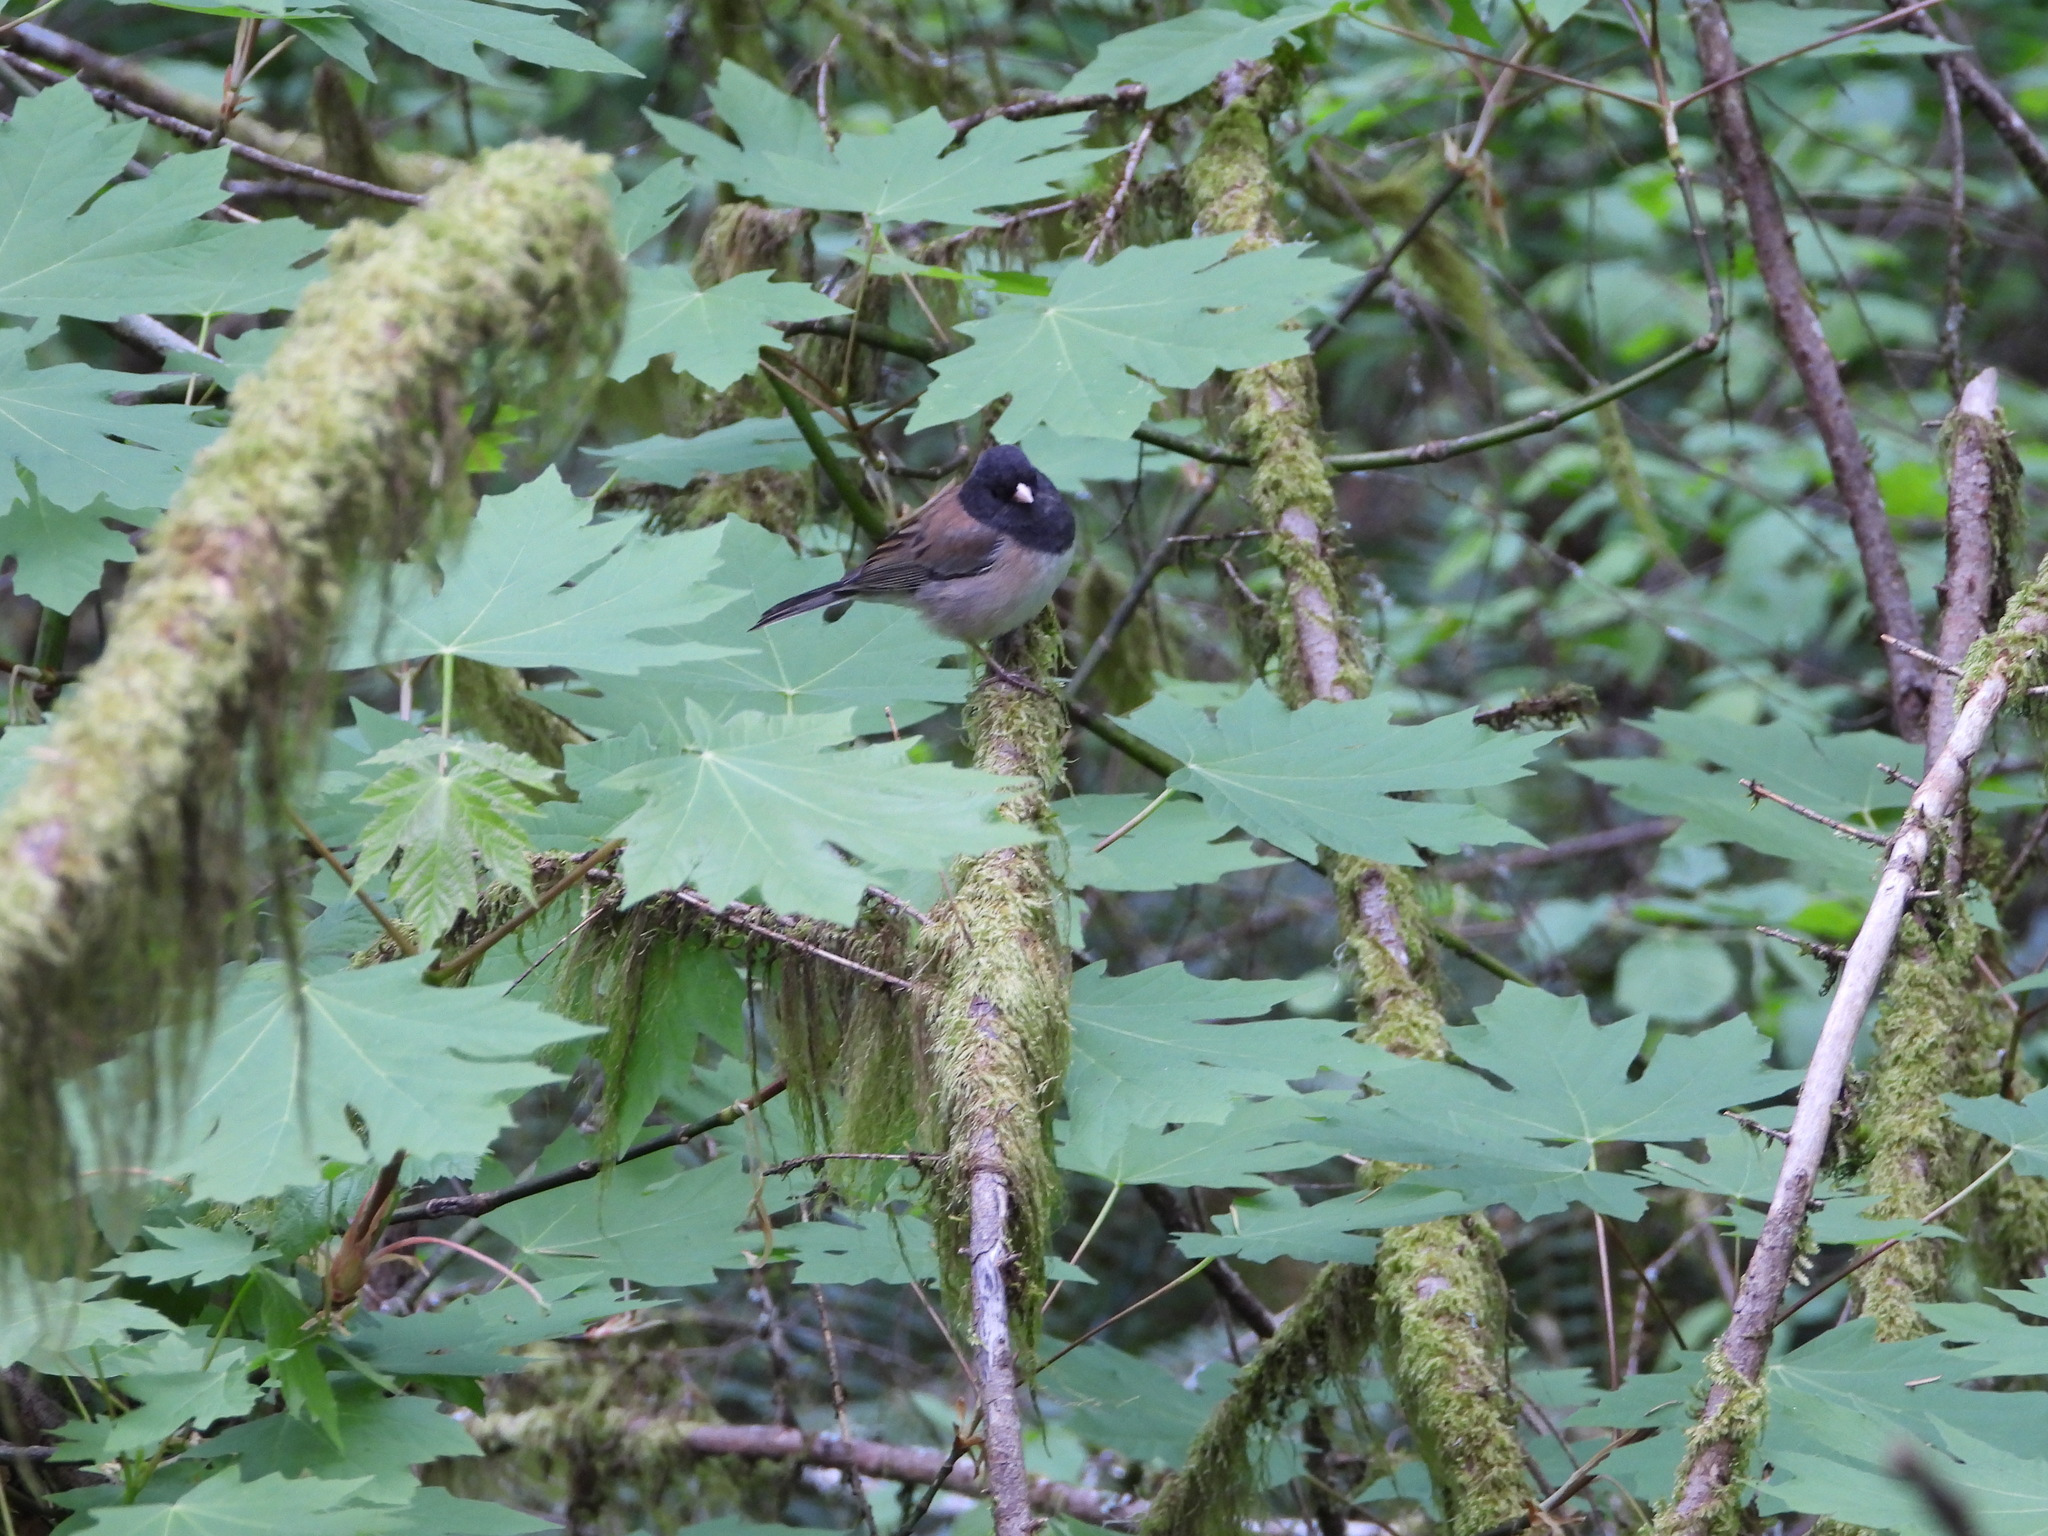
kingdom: Animalia
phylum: Chordata
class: Aves
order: Passeriformes
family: Passerellidae
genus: Junco
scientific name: Junco hyemalis
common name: Dark-eyed junco
